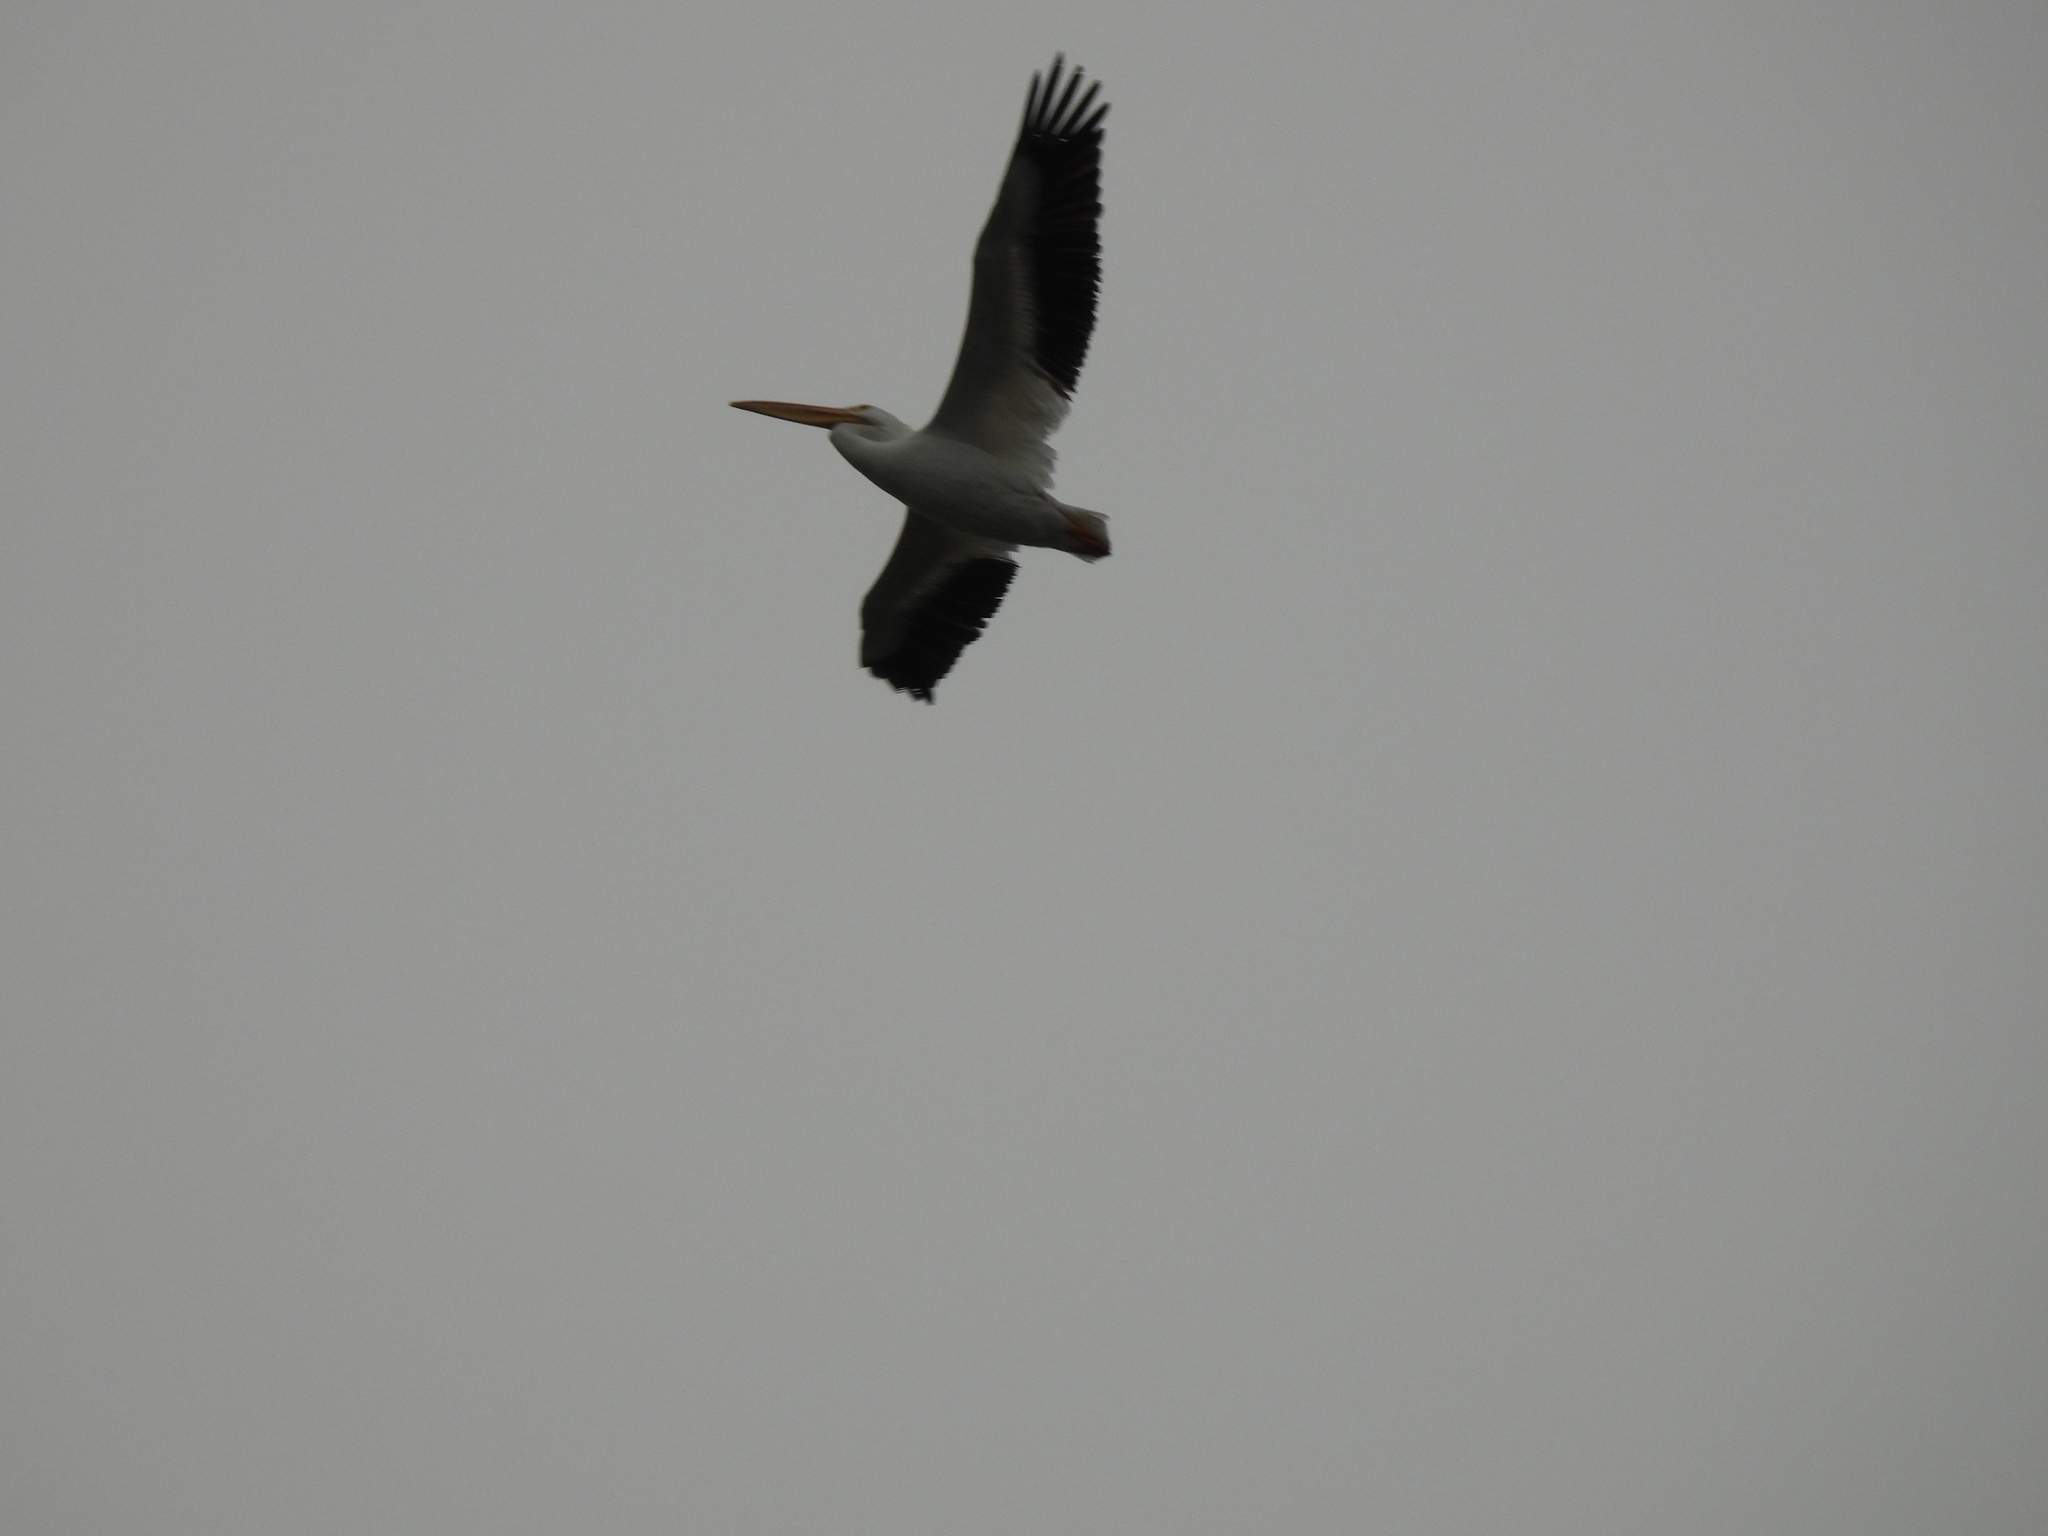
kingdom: Animalia
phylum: Chordata
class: Aves
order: Pelecaniformes
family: Pelecanidae
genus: Pelecanus
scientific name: Pelecanus erythrorhynchos
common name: American white pelican
